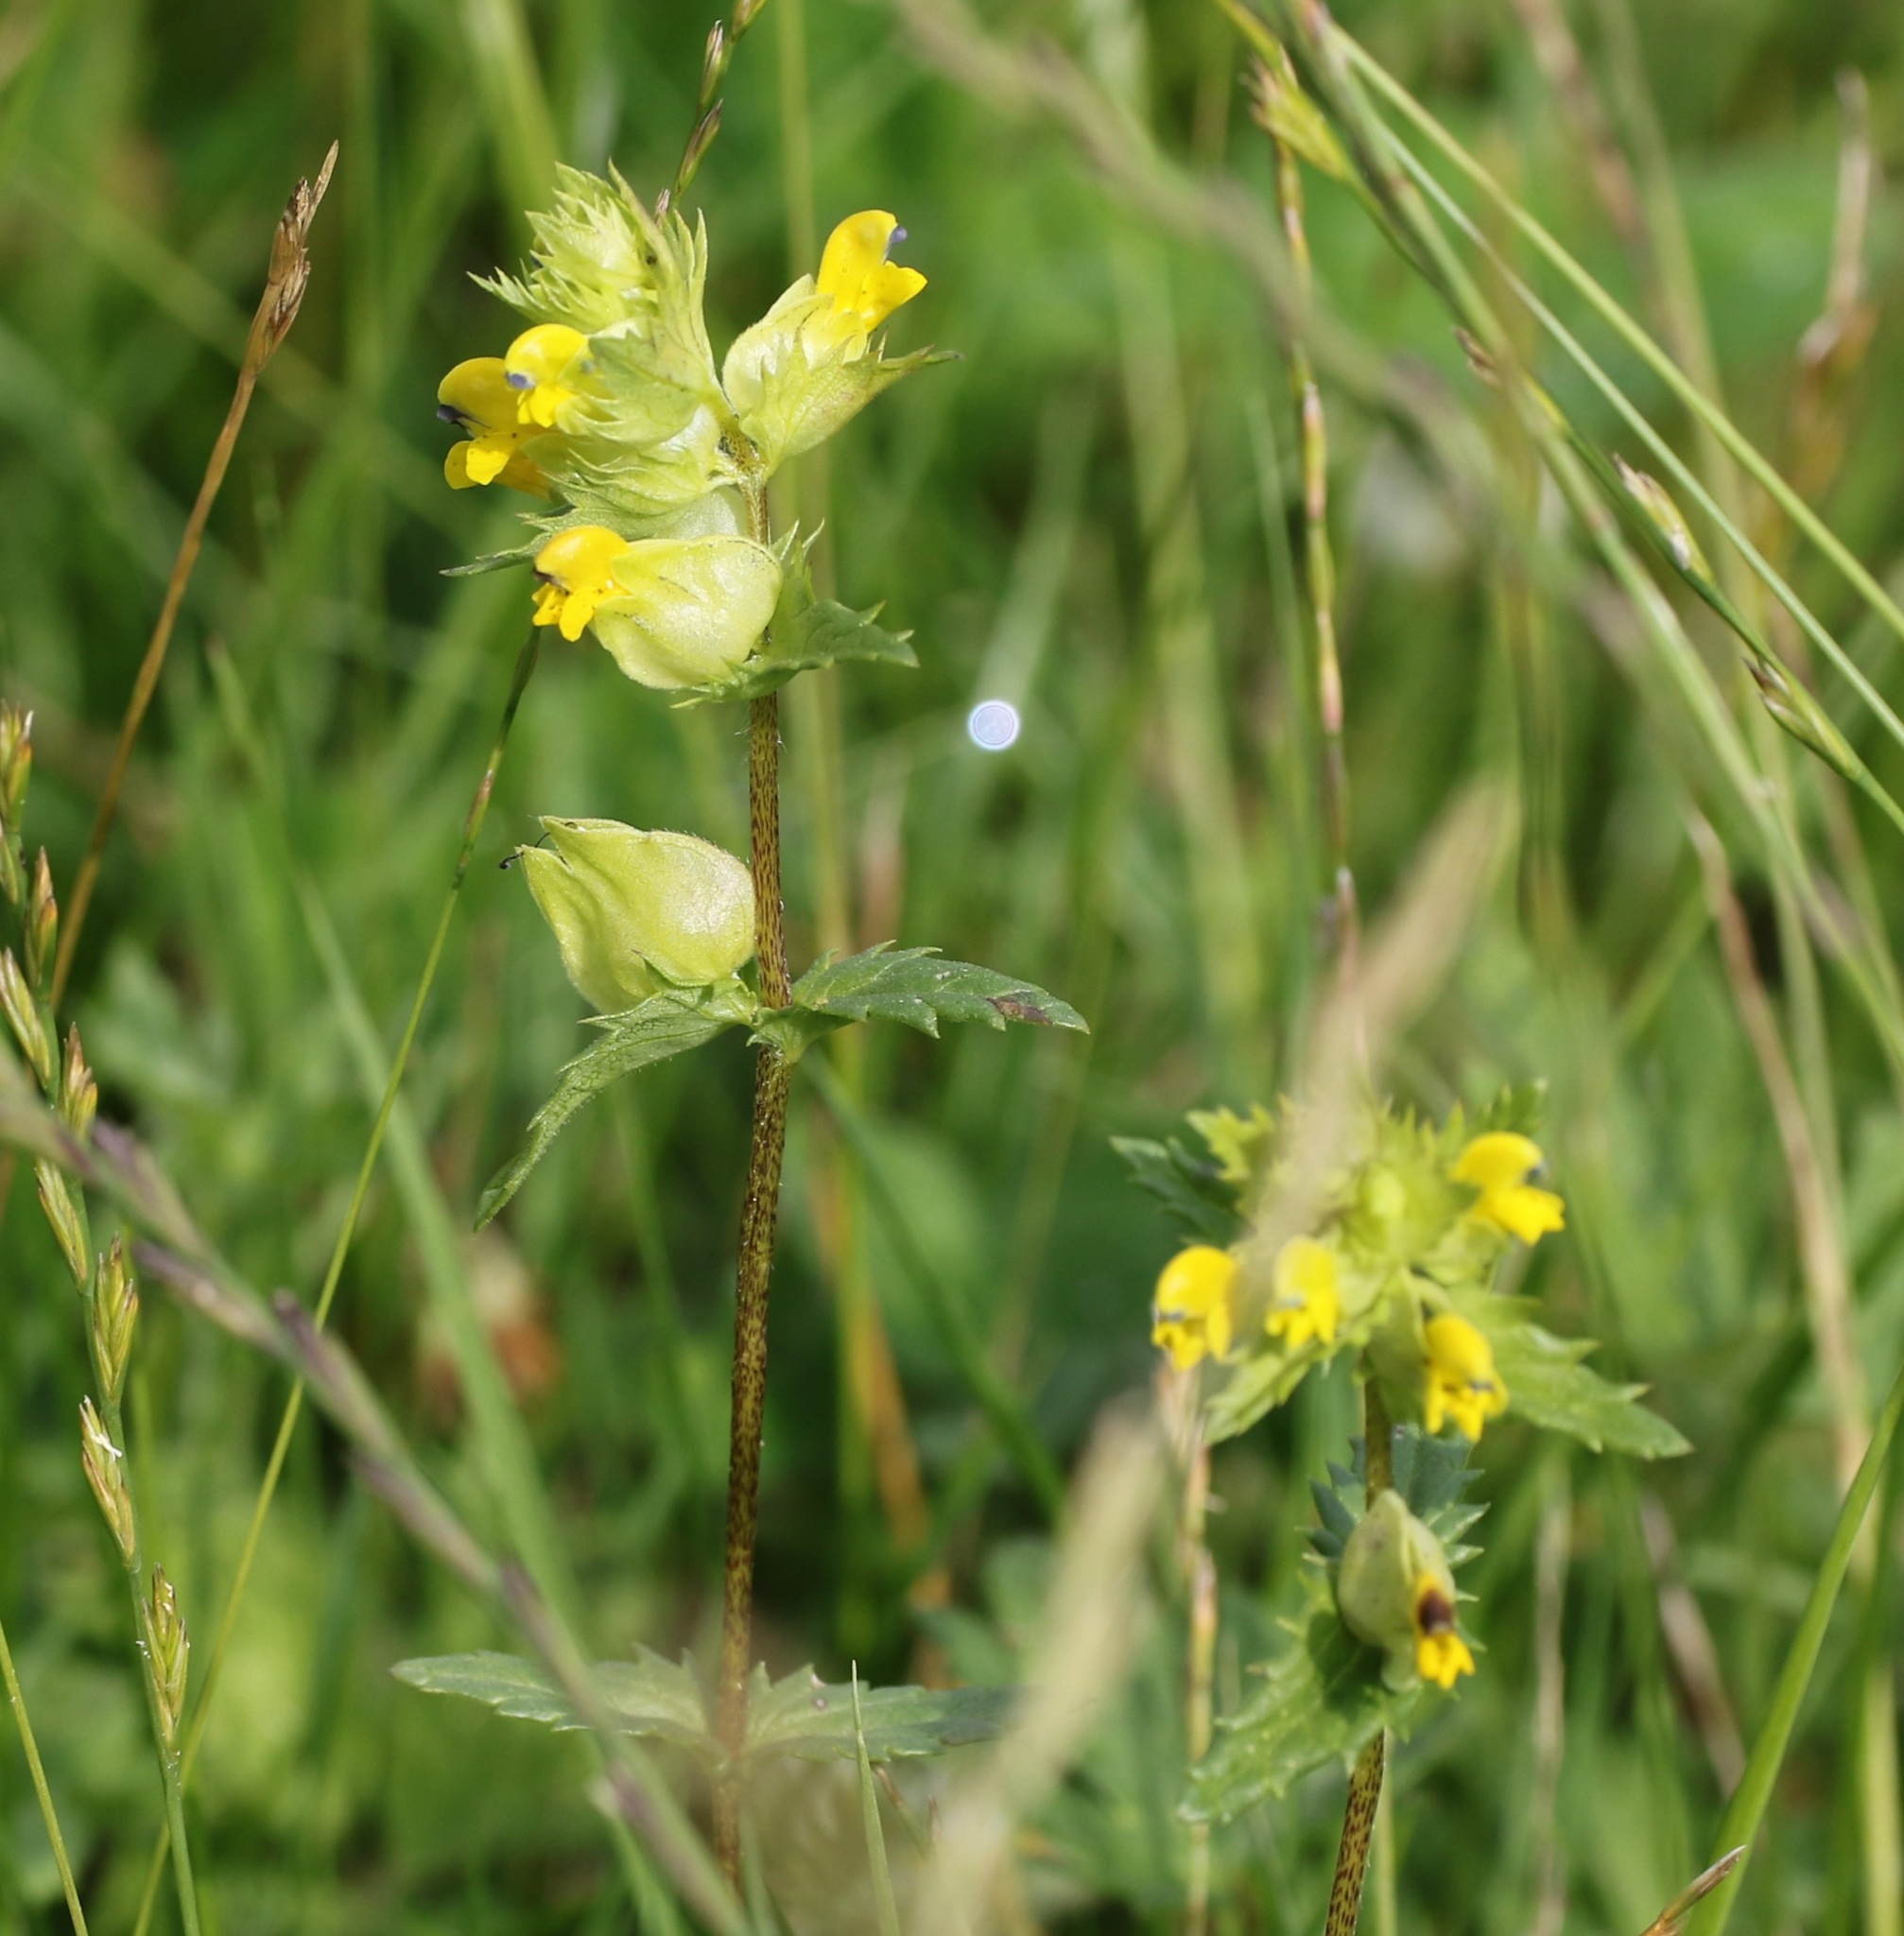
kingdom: Plantae
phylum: Tracheophyta
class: Magnoliopsida
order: Lamiales
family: Orobanchaceae
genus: Rhinanthus
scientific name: Rhinanthus minor
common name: Yellow-rattle
